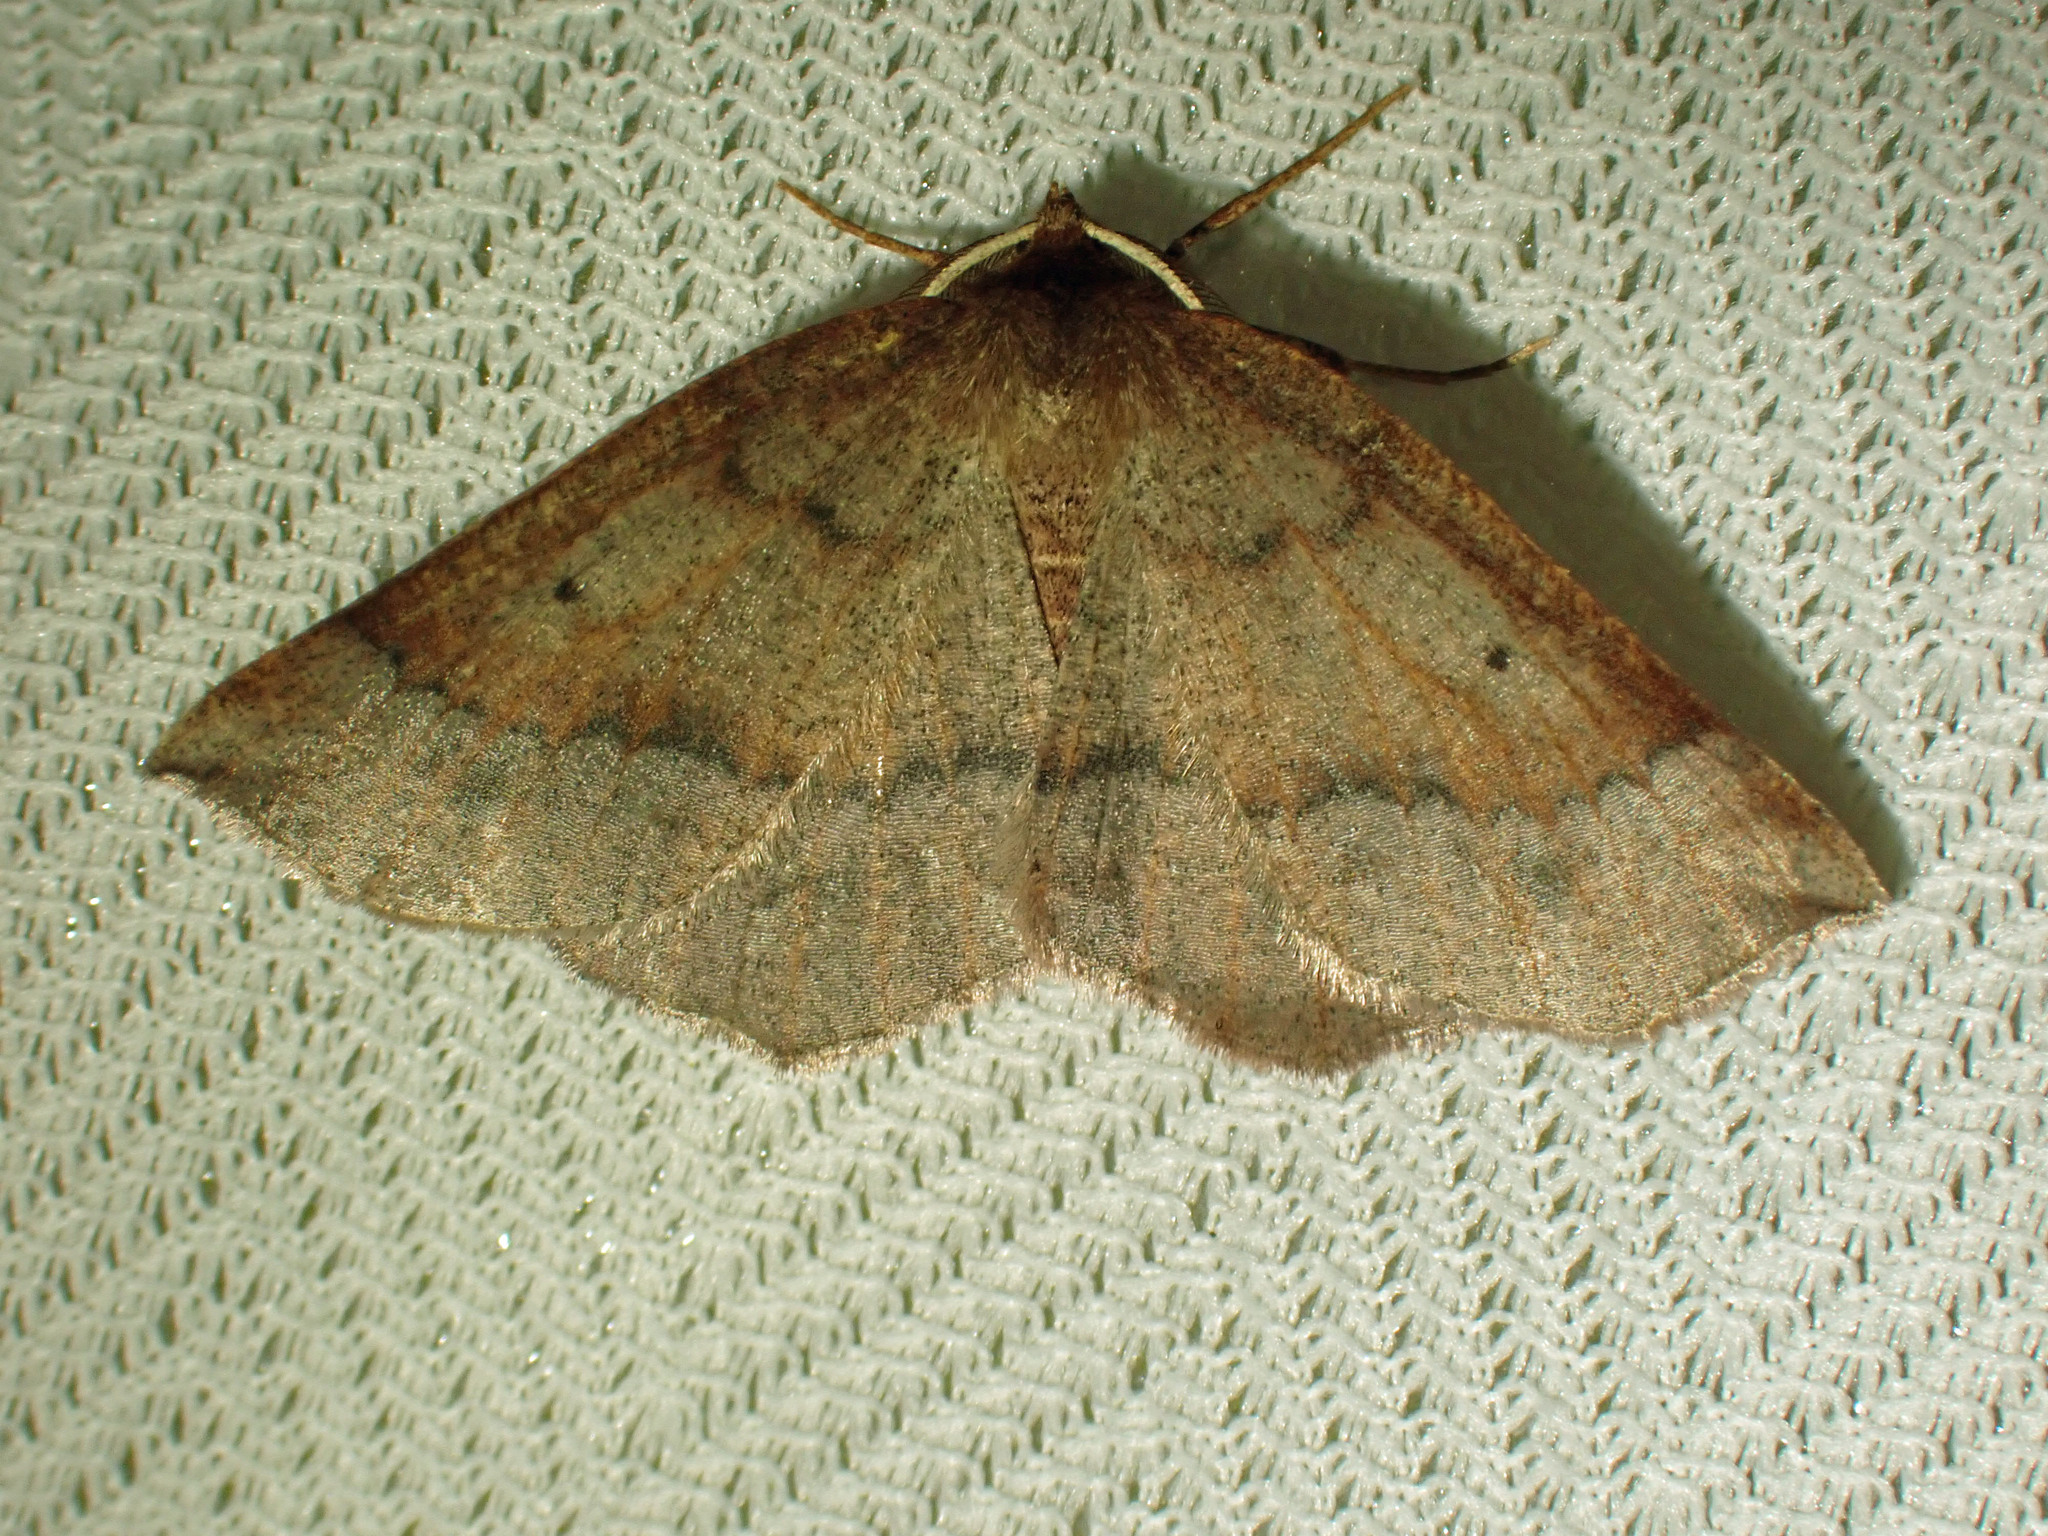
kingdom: Animalia
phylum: Arthropoda
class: Insecta
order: Lepidoptera
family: Geometridae
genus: Metarranthis
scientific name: Metarranthis duaria
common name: Ruddy metarranthis moth
